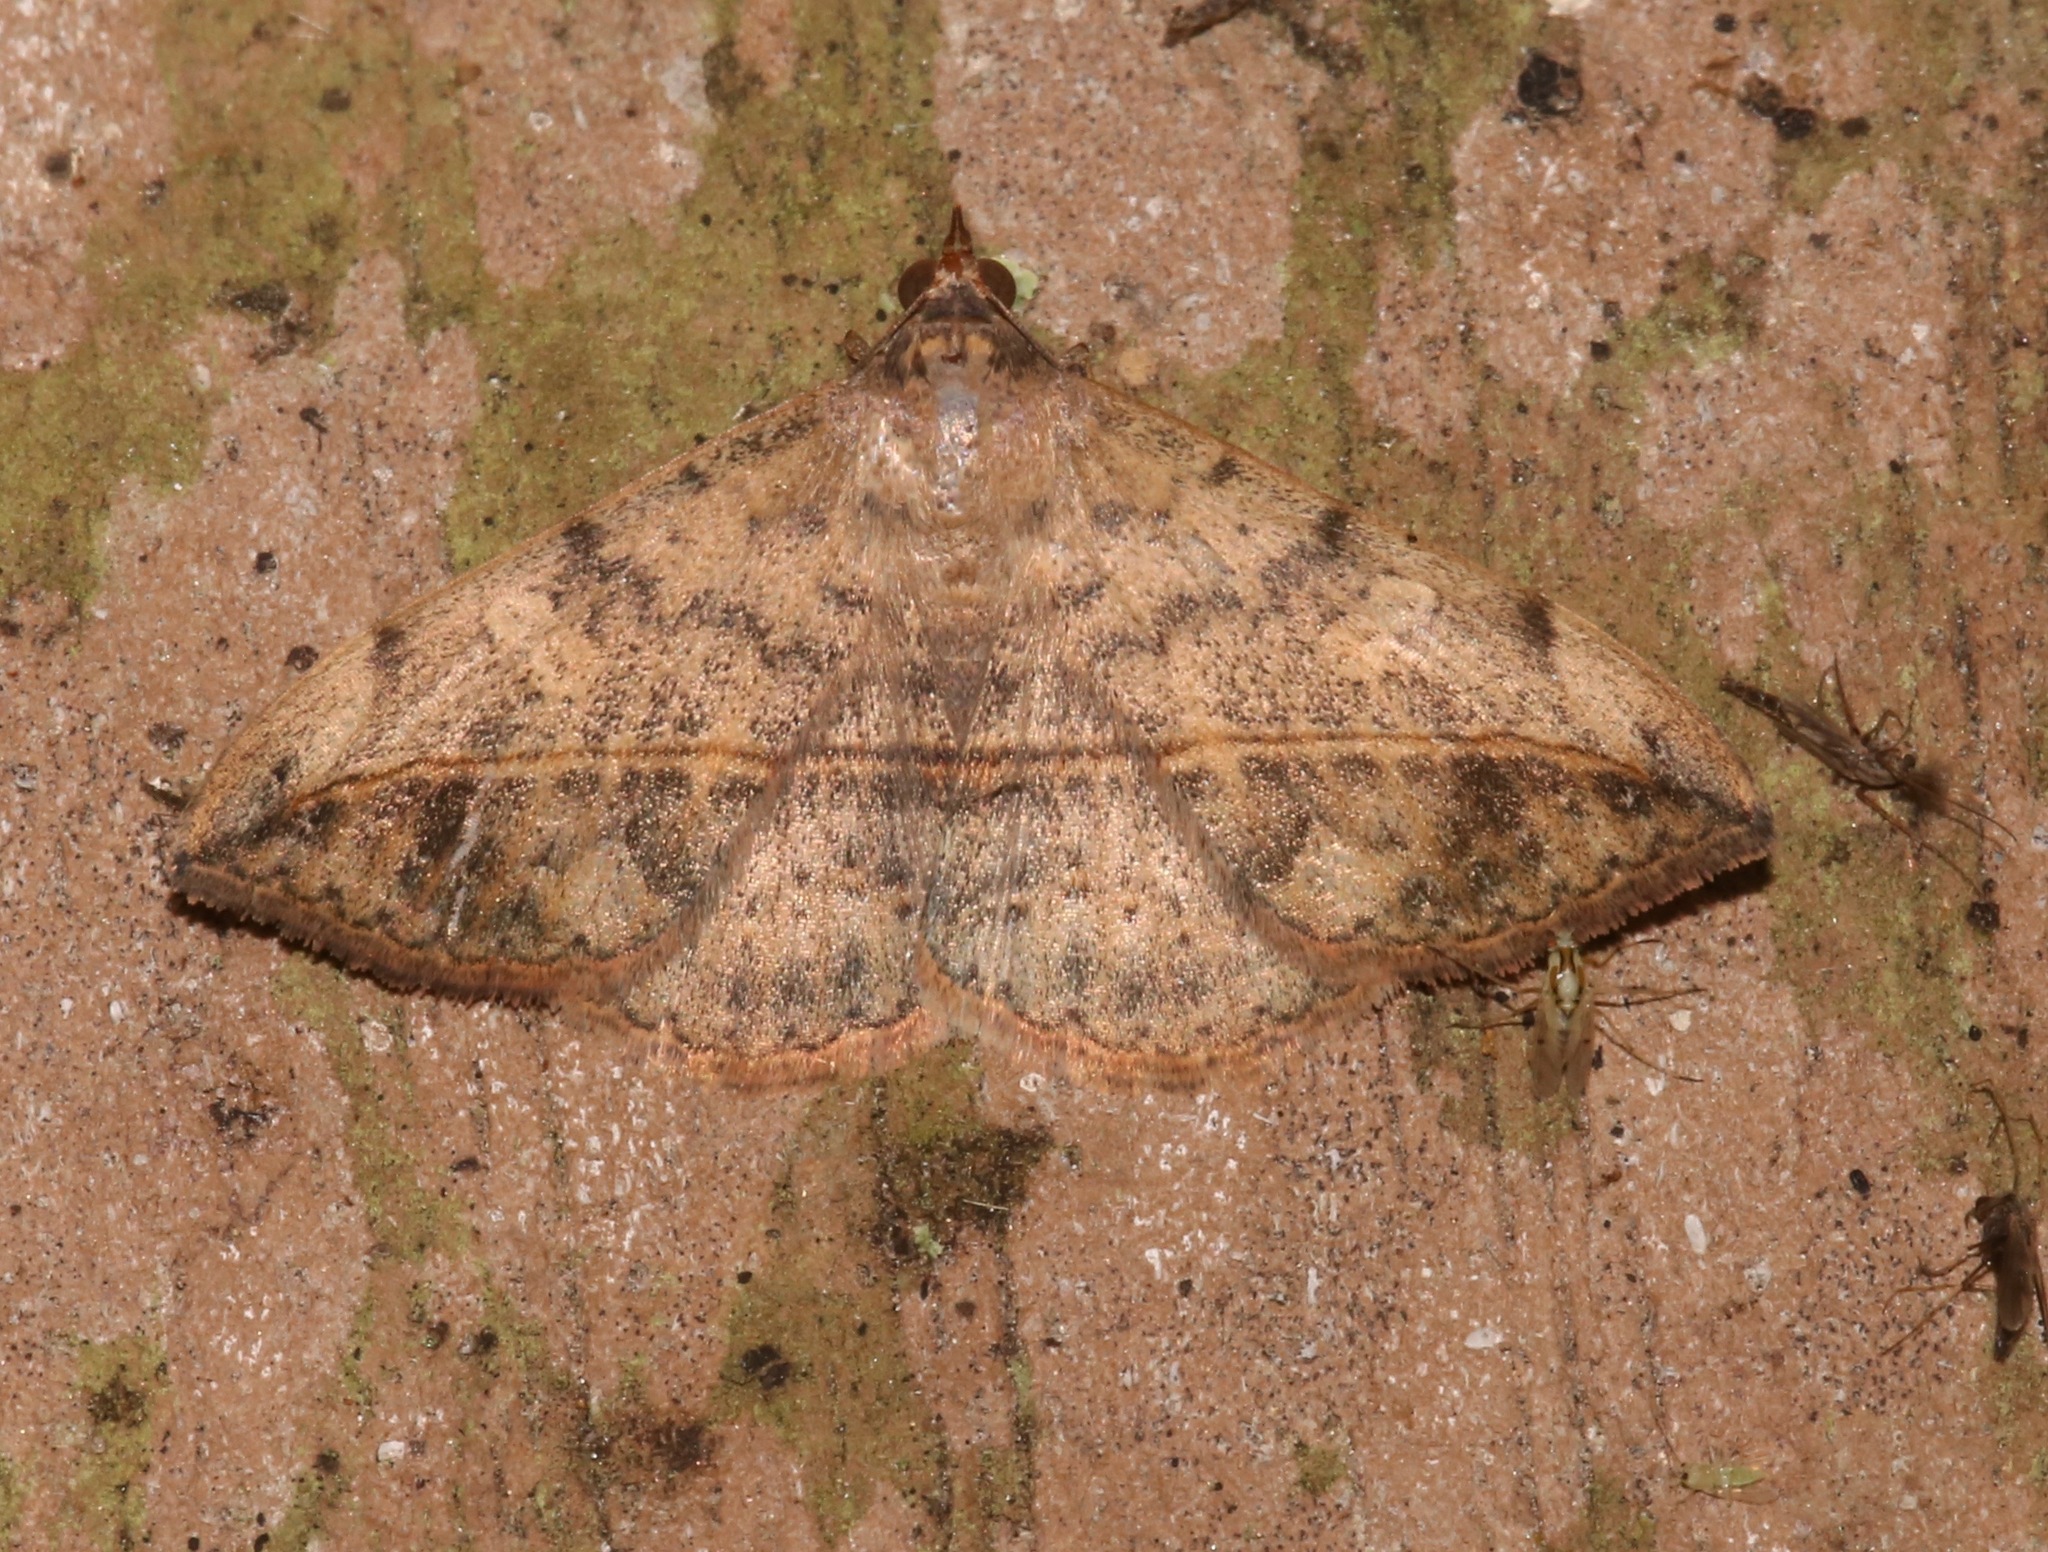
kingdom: Animalia
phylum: Arthropoda
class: Insecta
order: Lepidoptera
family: Erebidae
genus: Anticarsia
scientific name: Anticarsia gemmatalis
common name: Cutworm moth
